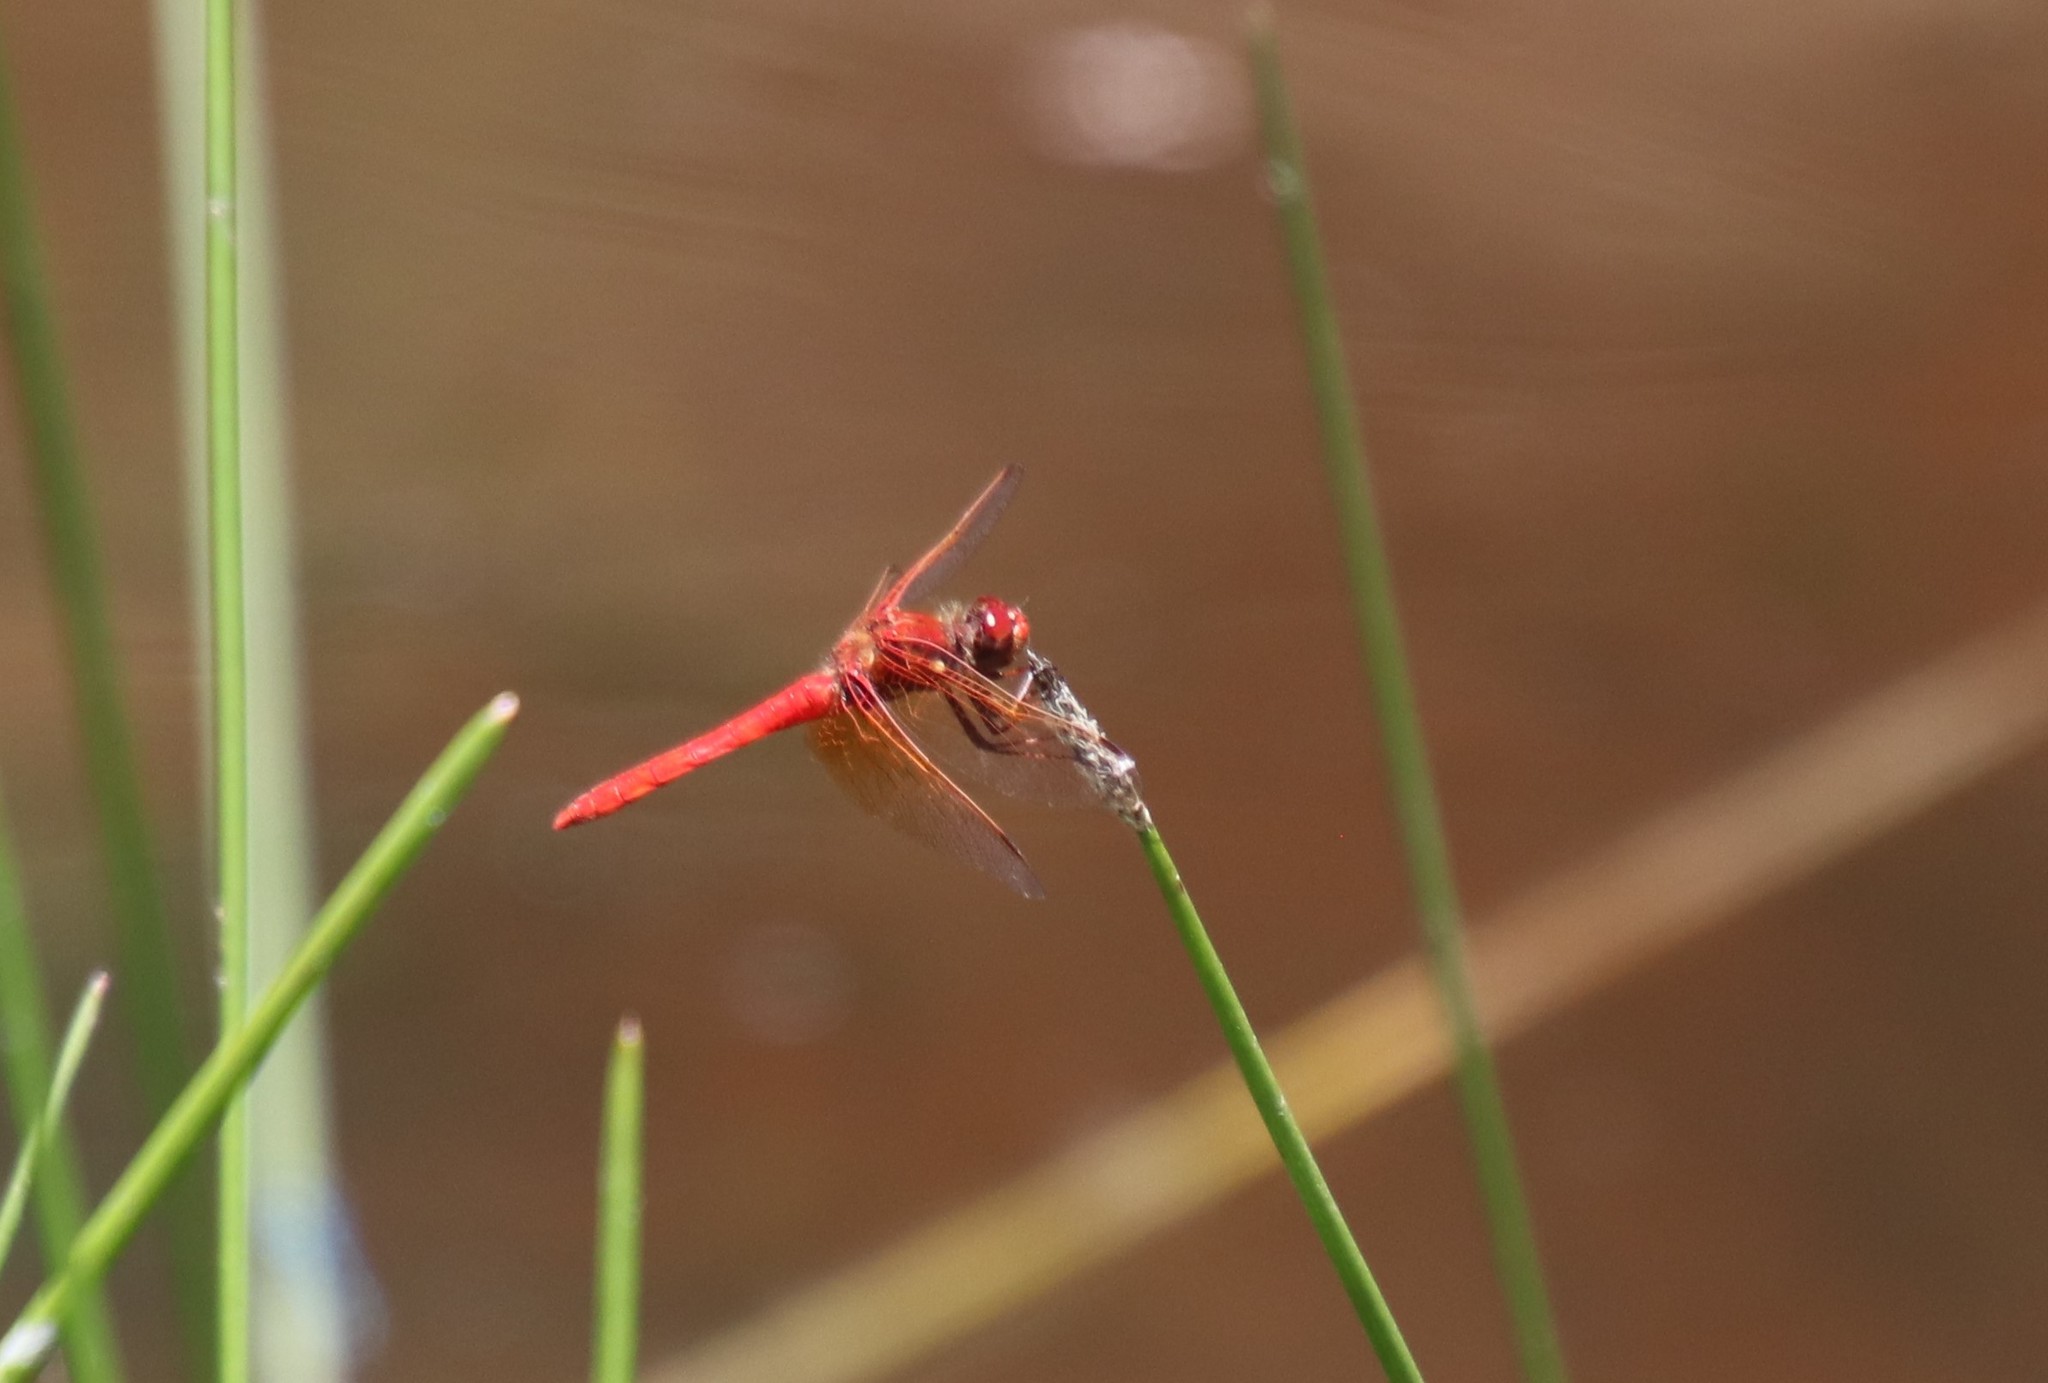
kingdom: Animalia
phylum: Arthropoda
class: Insecta
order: Odonata
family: Libellulidae
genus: Sympetrum
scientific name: Sympetrum illotum
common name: Cardinal meadowhawk
